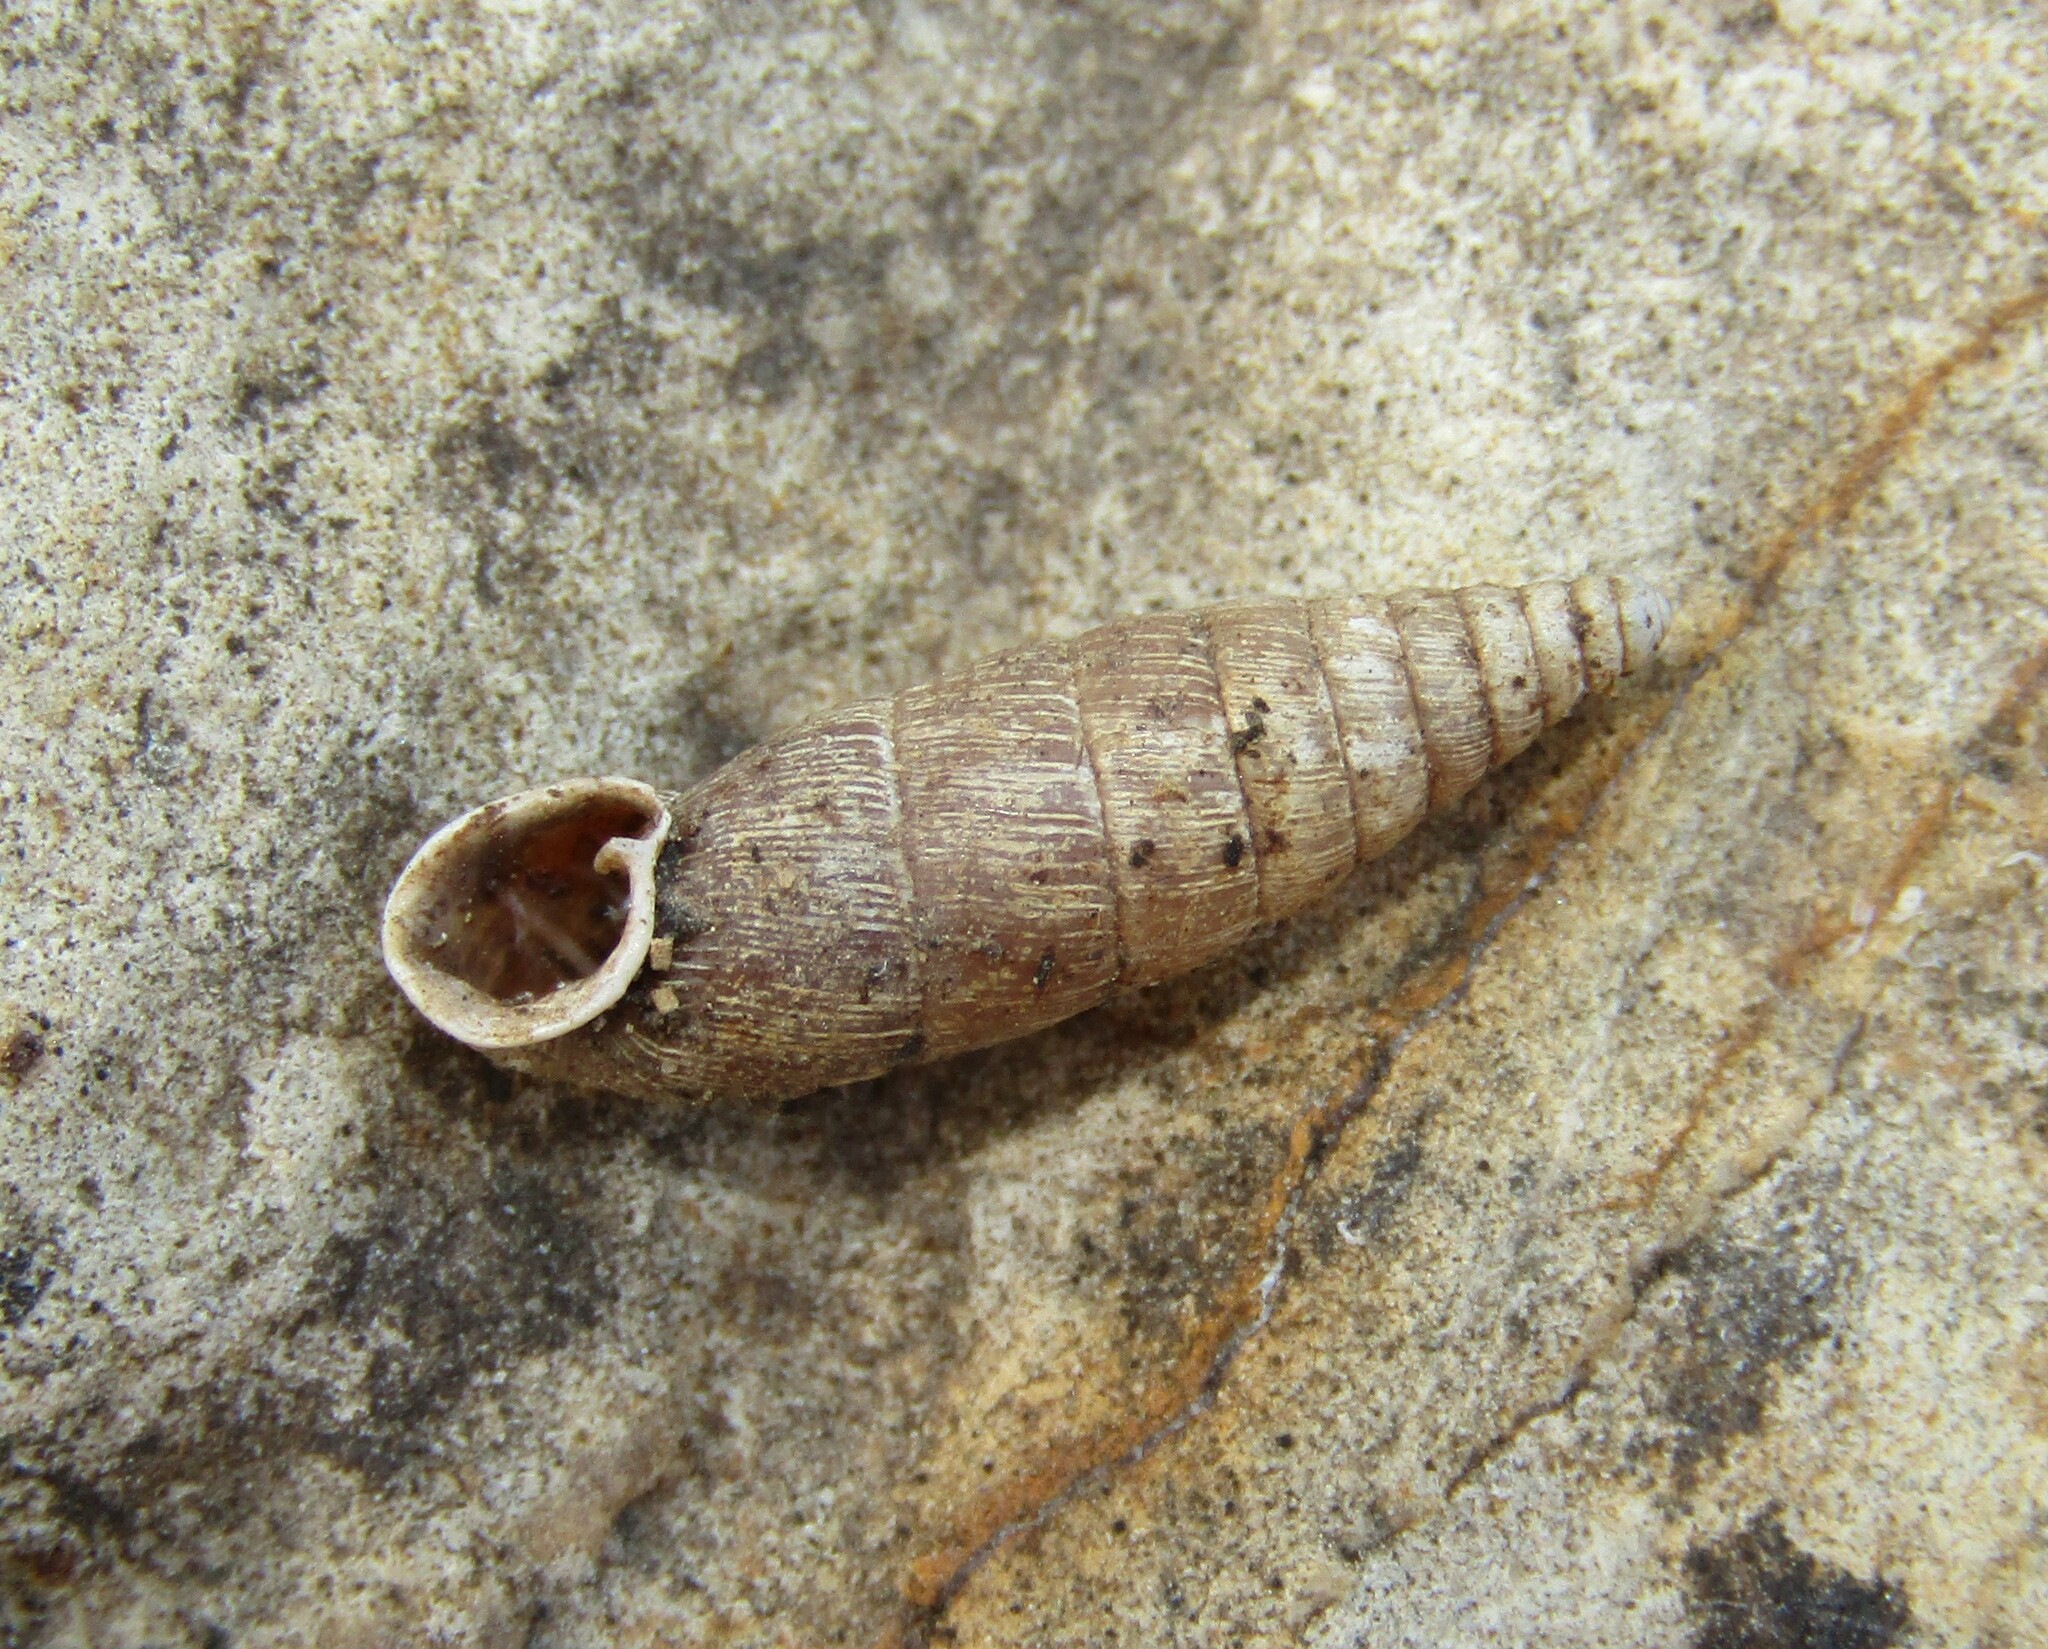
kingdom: Animalia
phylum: Mollusca
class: Gastropoda
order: Stylommatophora
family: Clausiliidae
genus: Elia
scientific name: Elia novorossica
